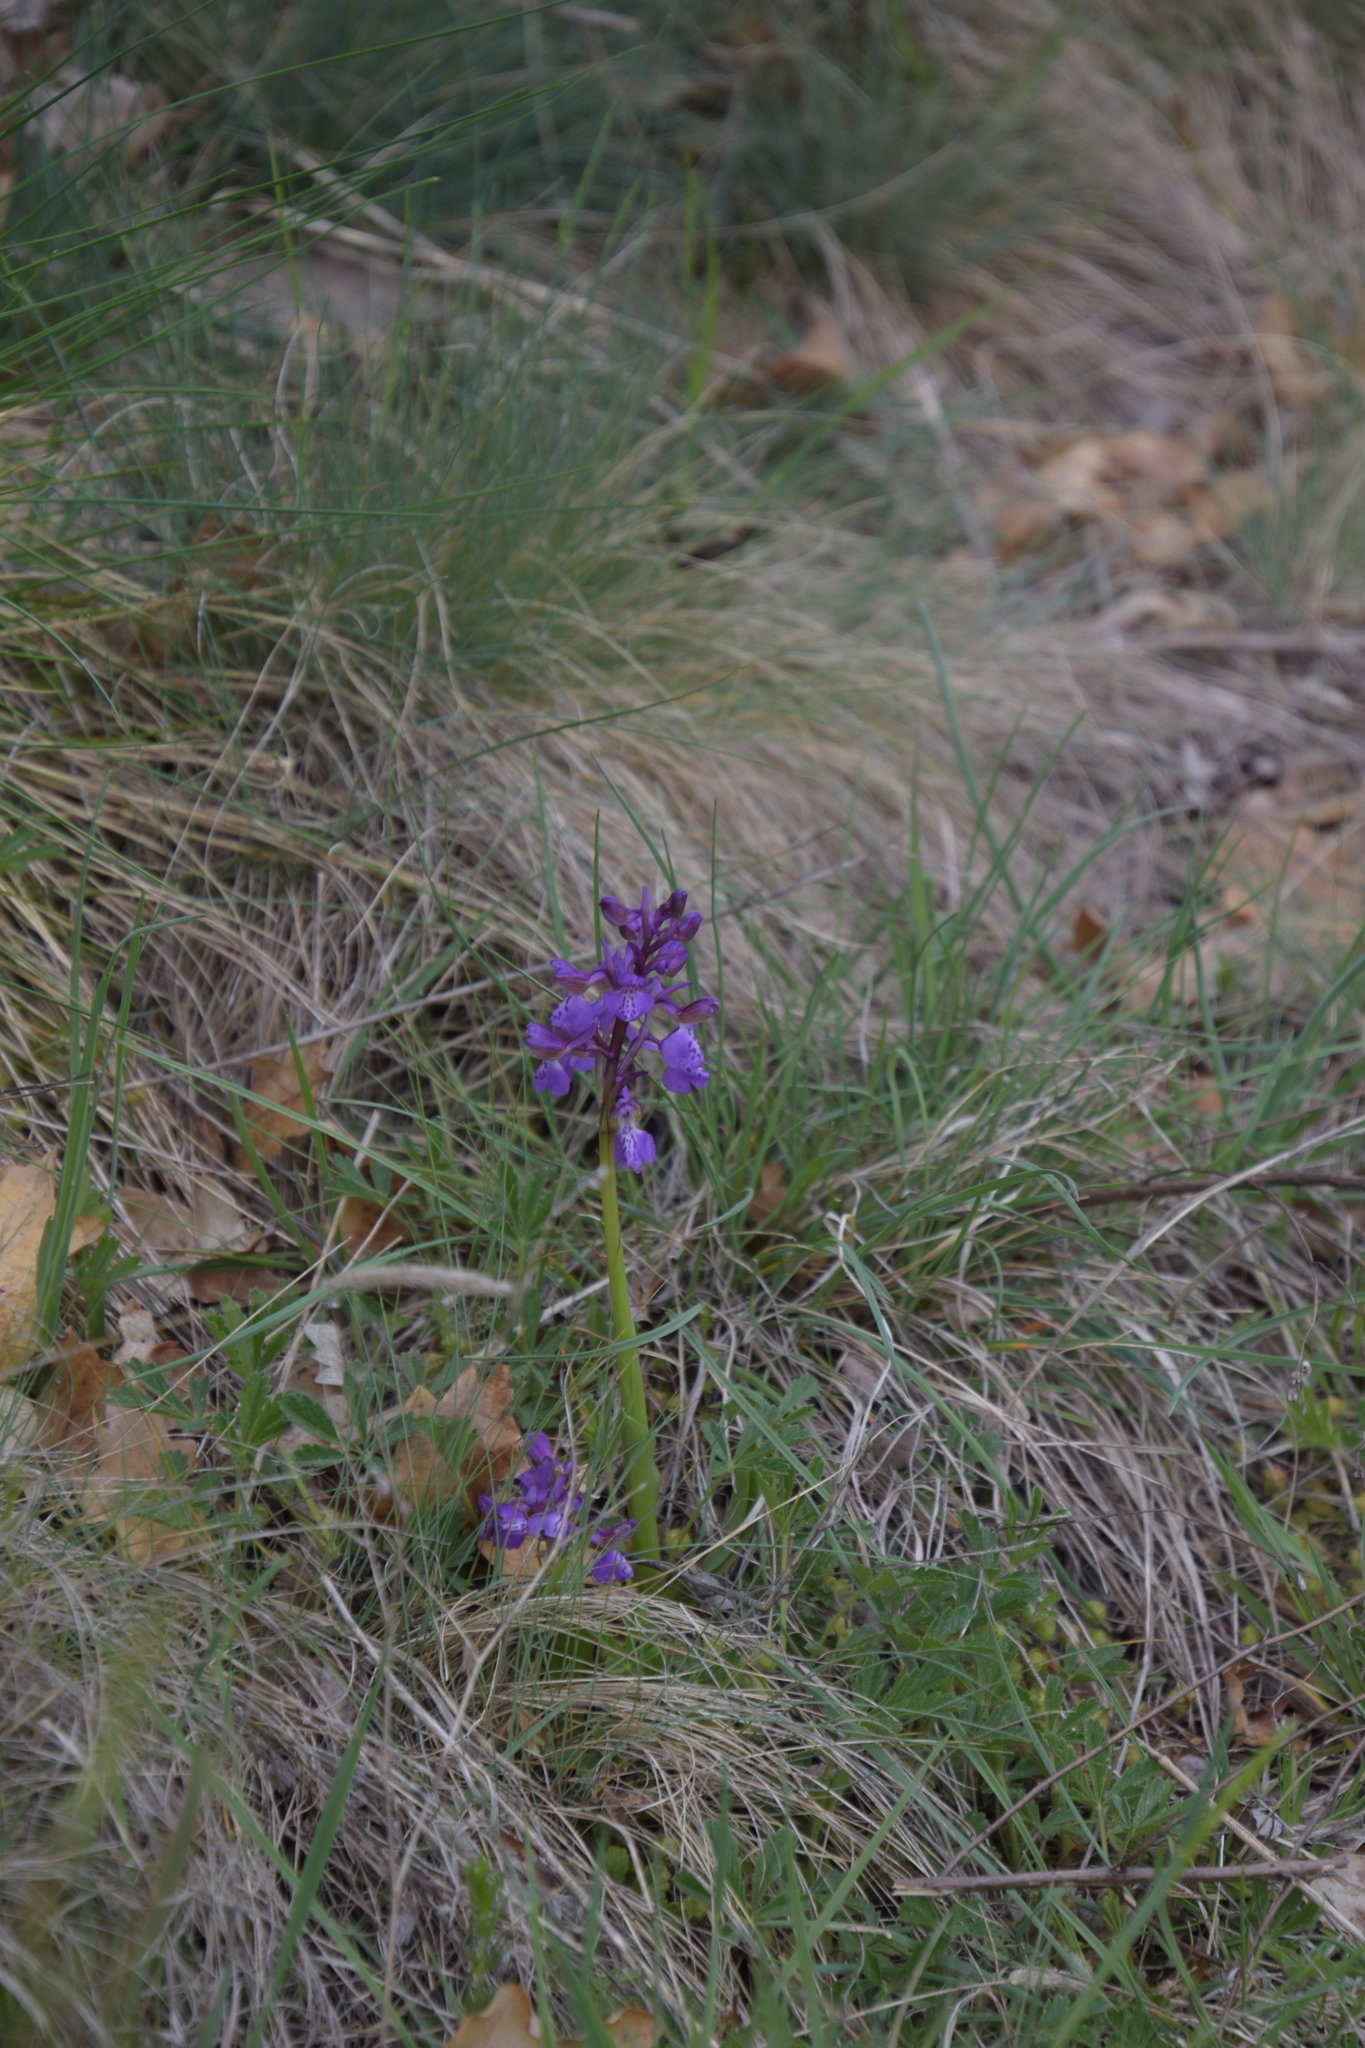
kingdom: Plantae
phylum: Tracheophyta
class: Liliopsida
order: Asparagales
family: Orchidaceae
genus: Anacamptis
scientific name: Anacamptis morio
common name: Green-winged orchid
